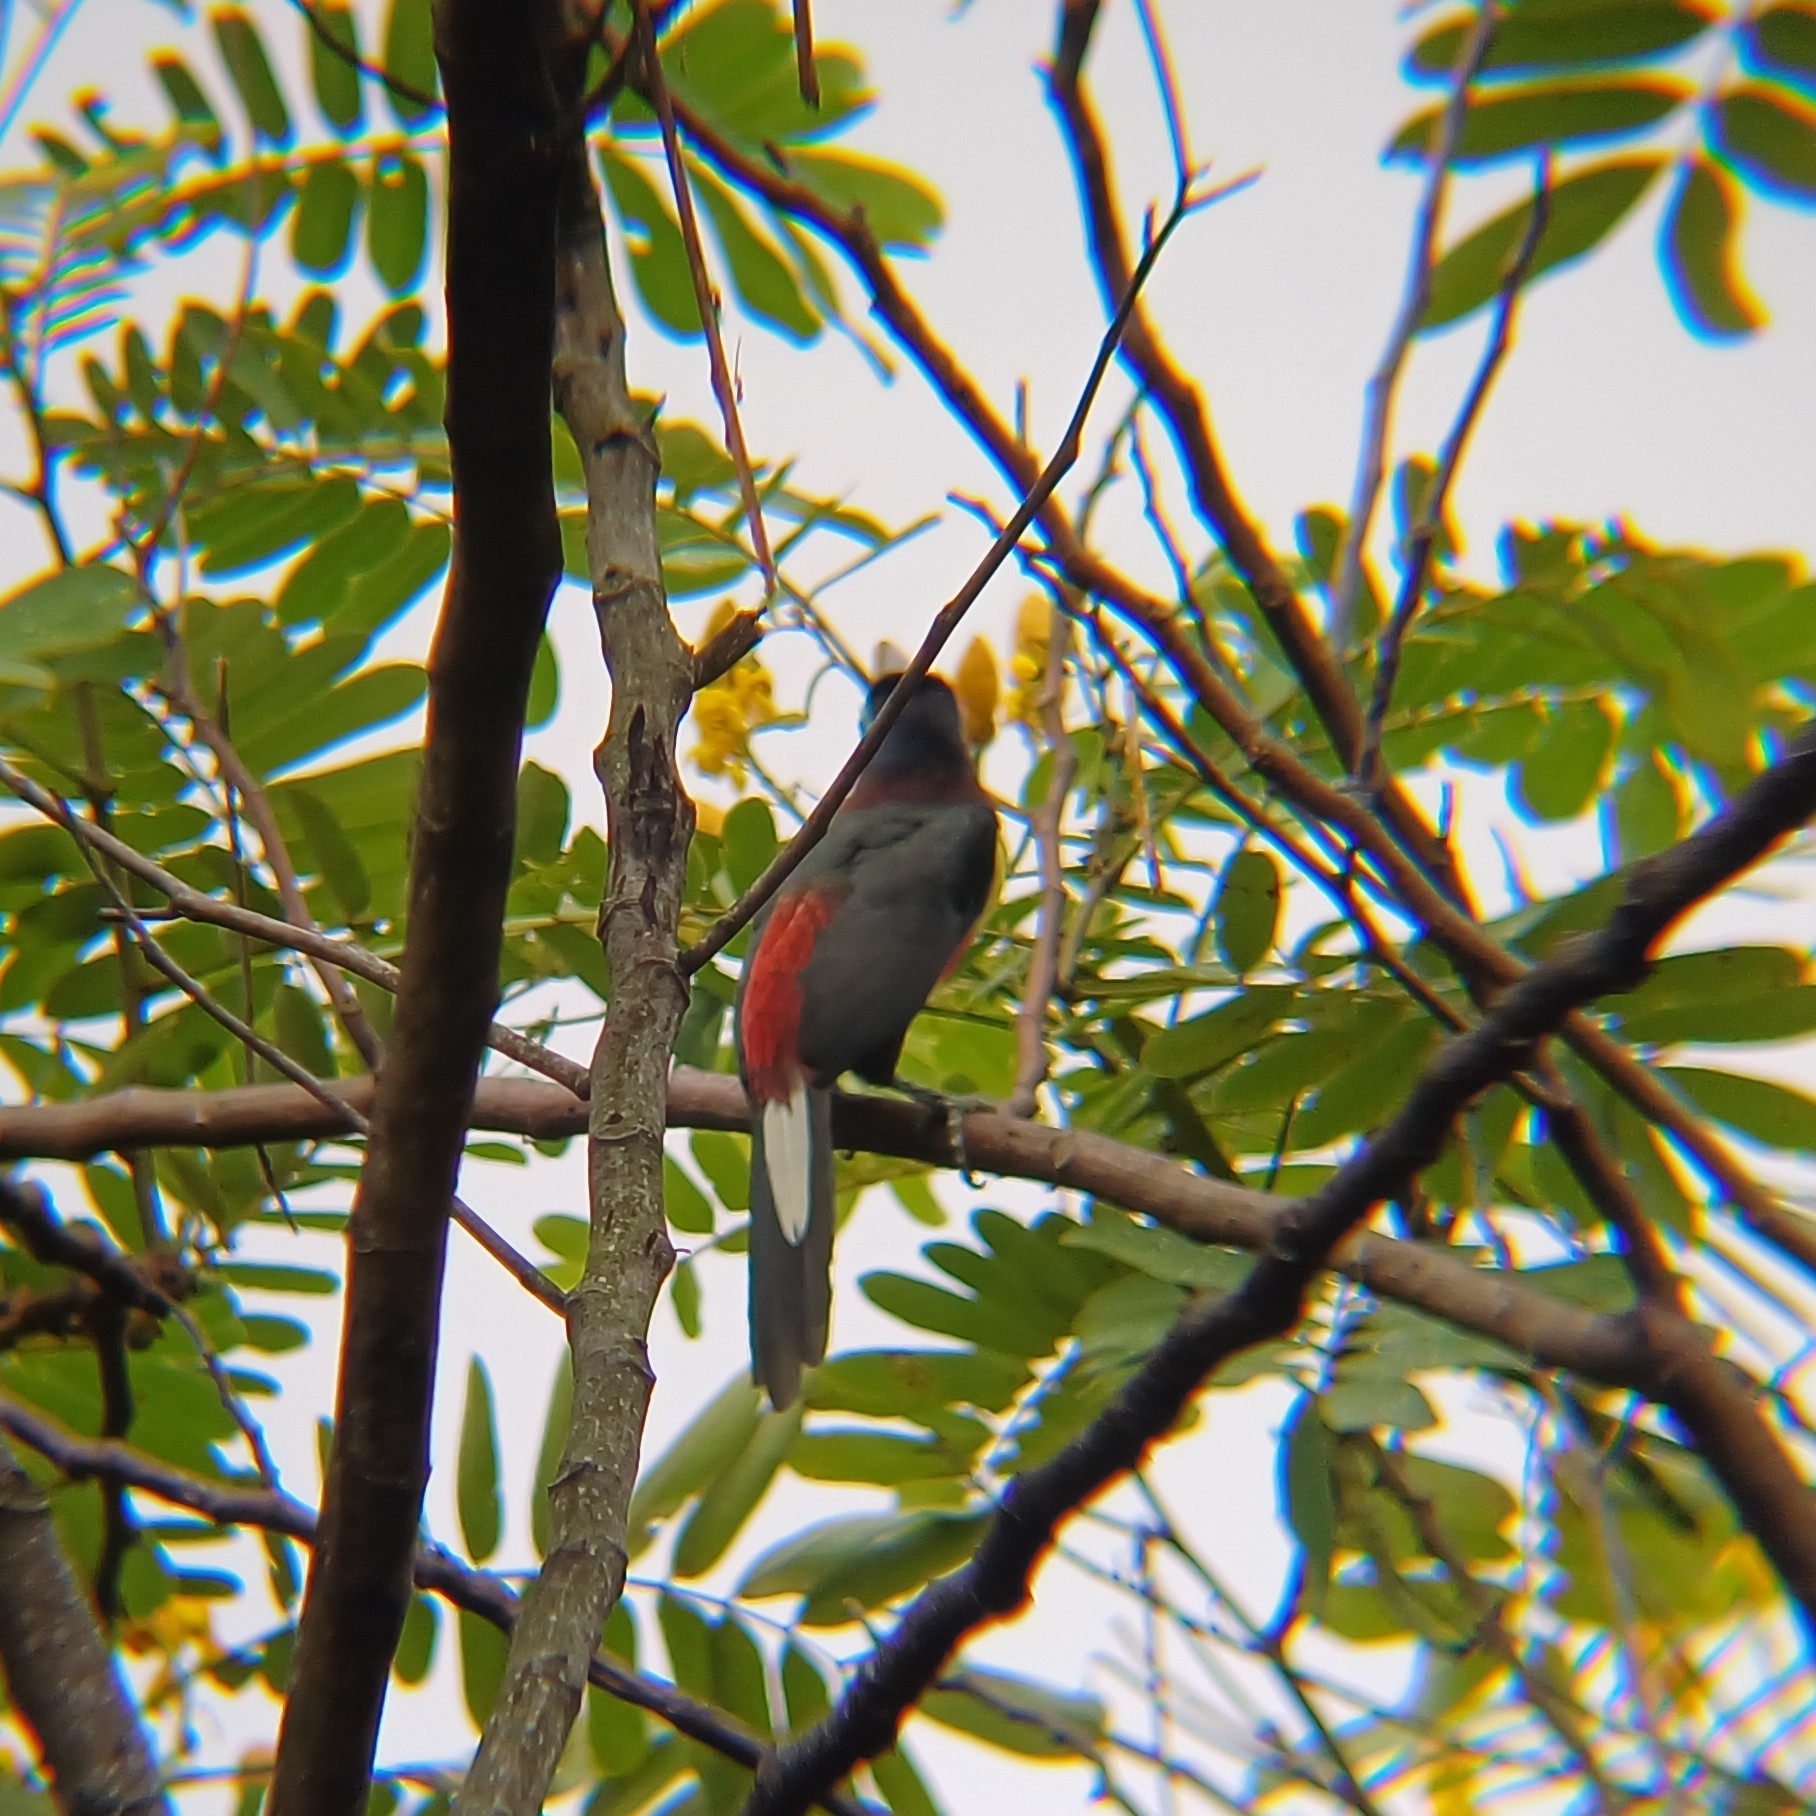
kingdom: Animalia
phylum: Chordata
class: Aves
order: Piciformes
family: Ramphastidae
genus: Pteroglossus
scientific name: Pteroglossus castanotis
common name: Chestnut-eared aracari
